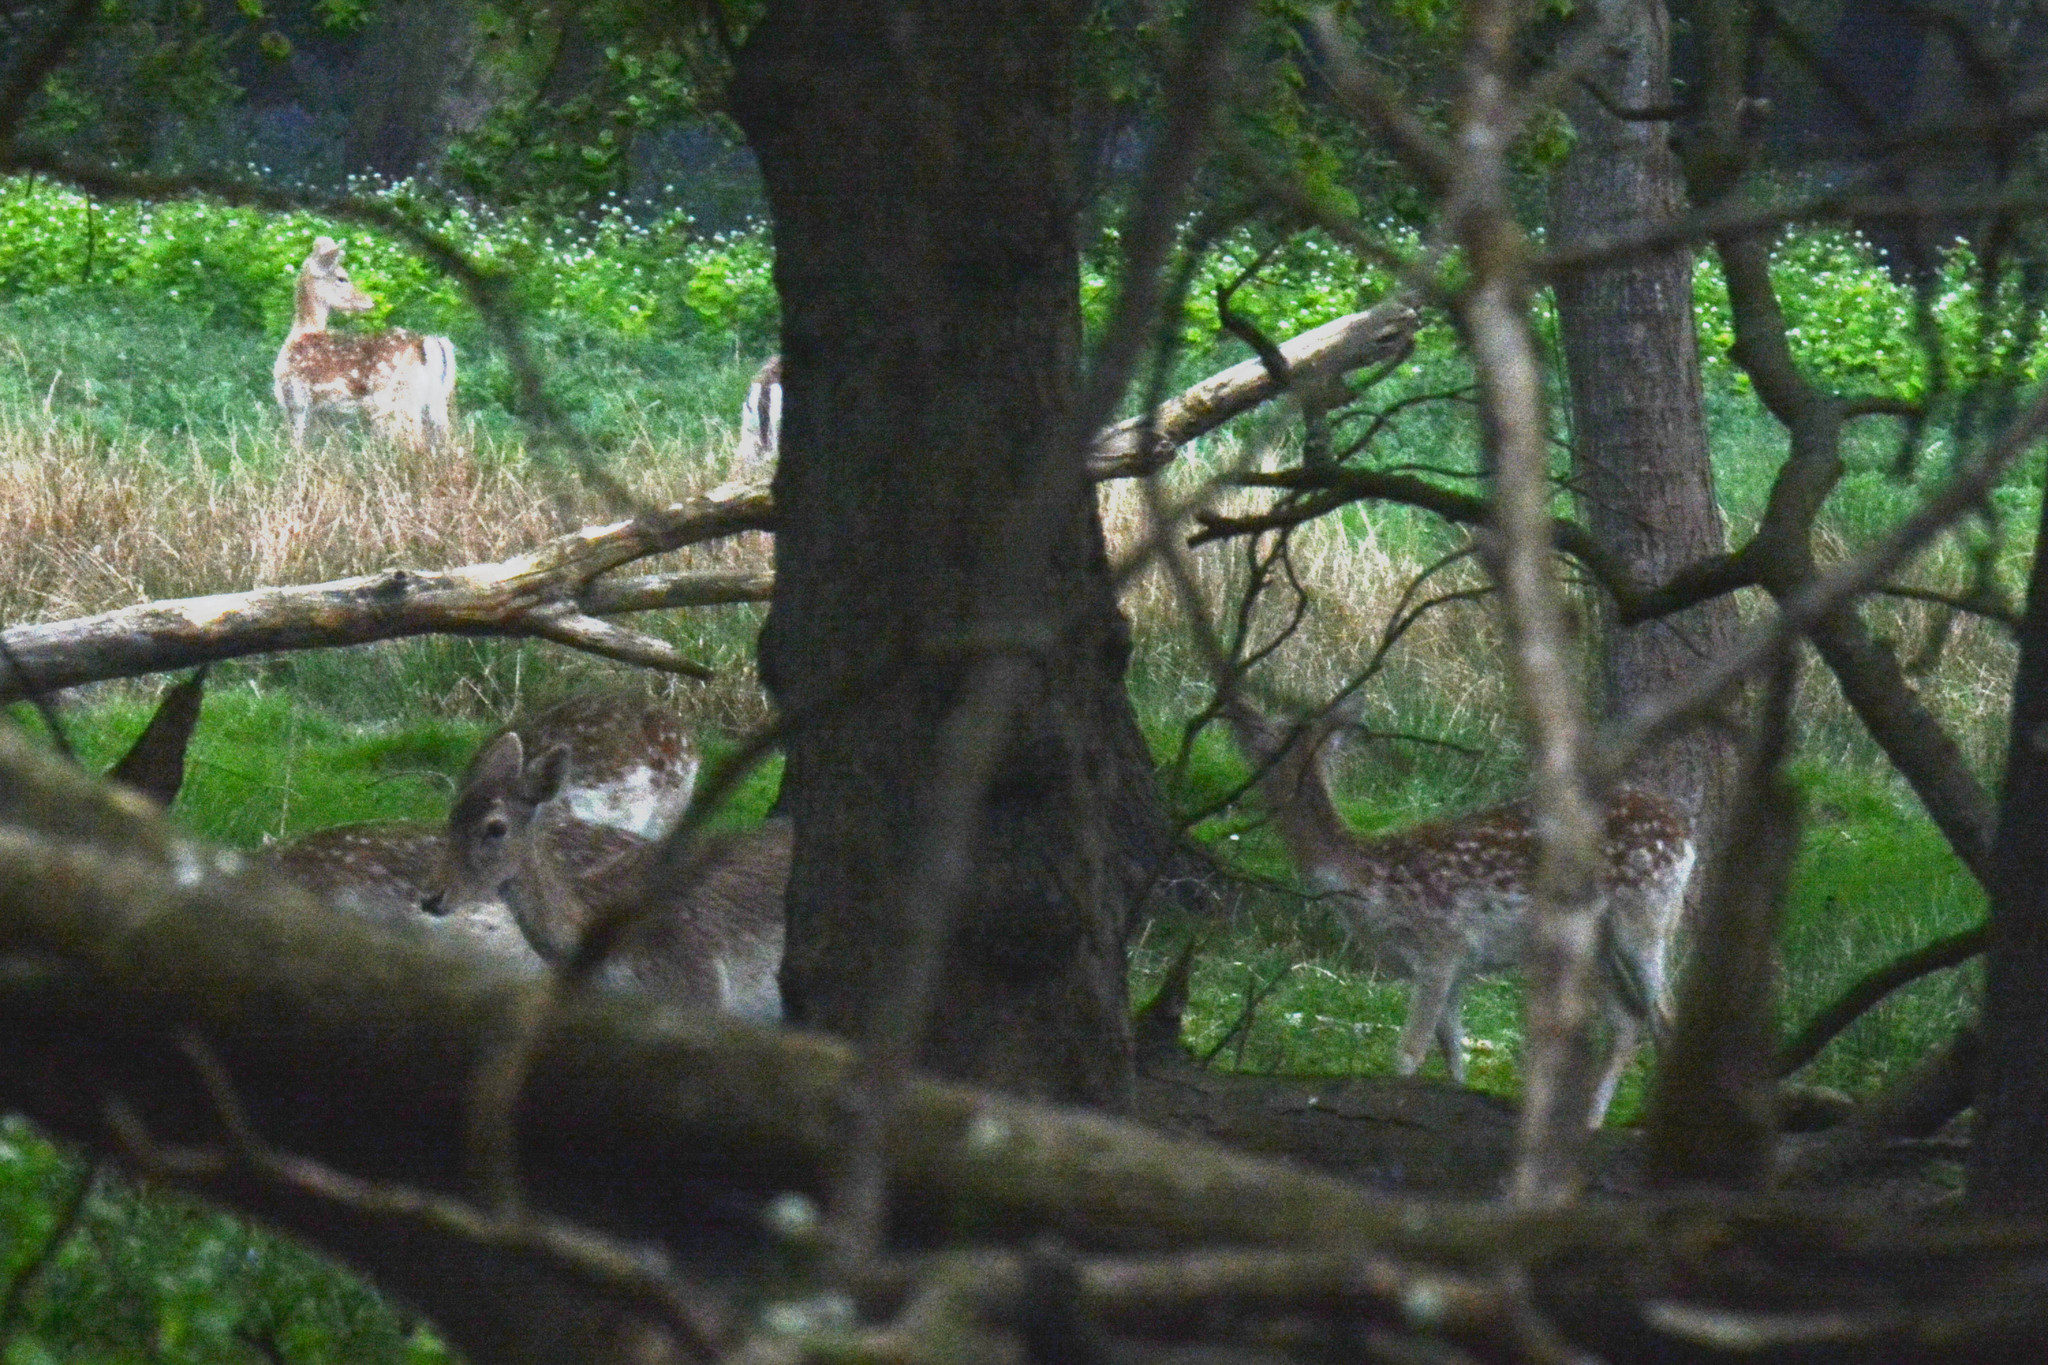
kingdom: Animalia
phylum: Chordata
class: Mammalia
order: Artiodactyla
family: Cervidae
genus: Dama
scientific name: Dama dama
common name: Fallow deer
